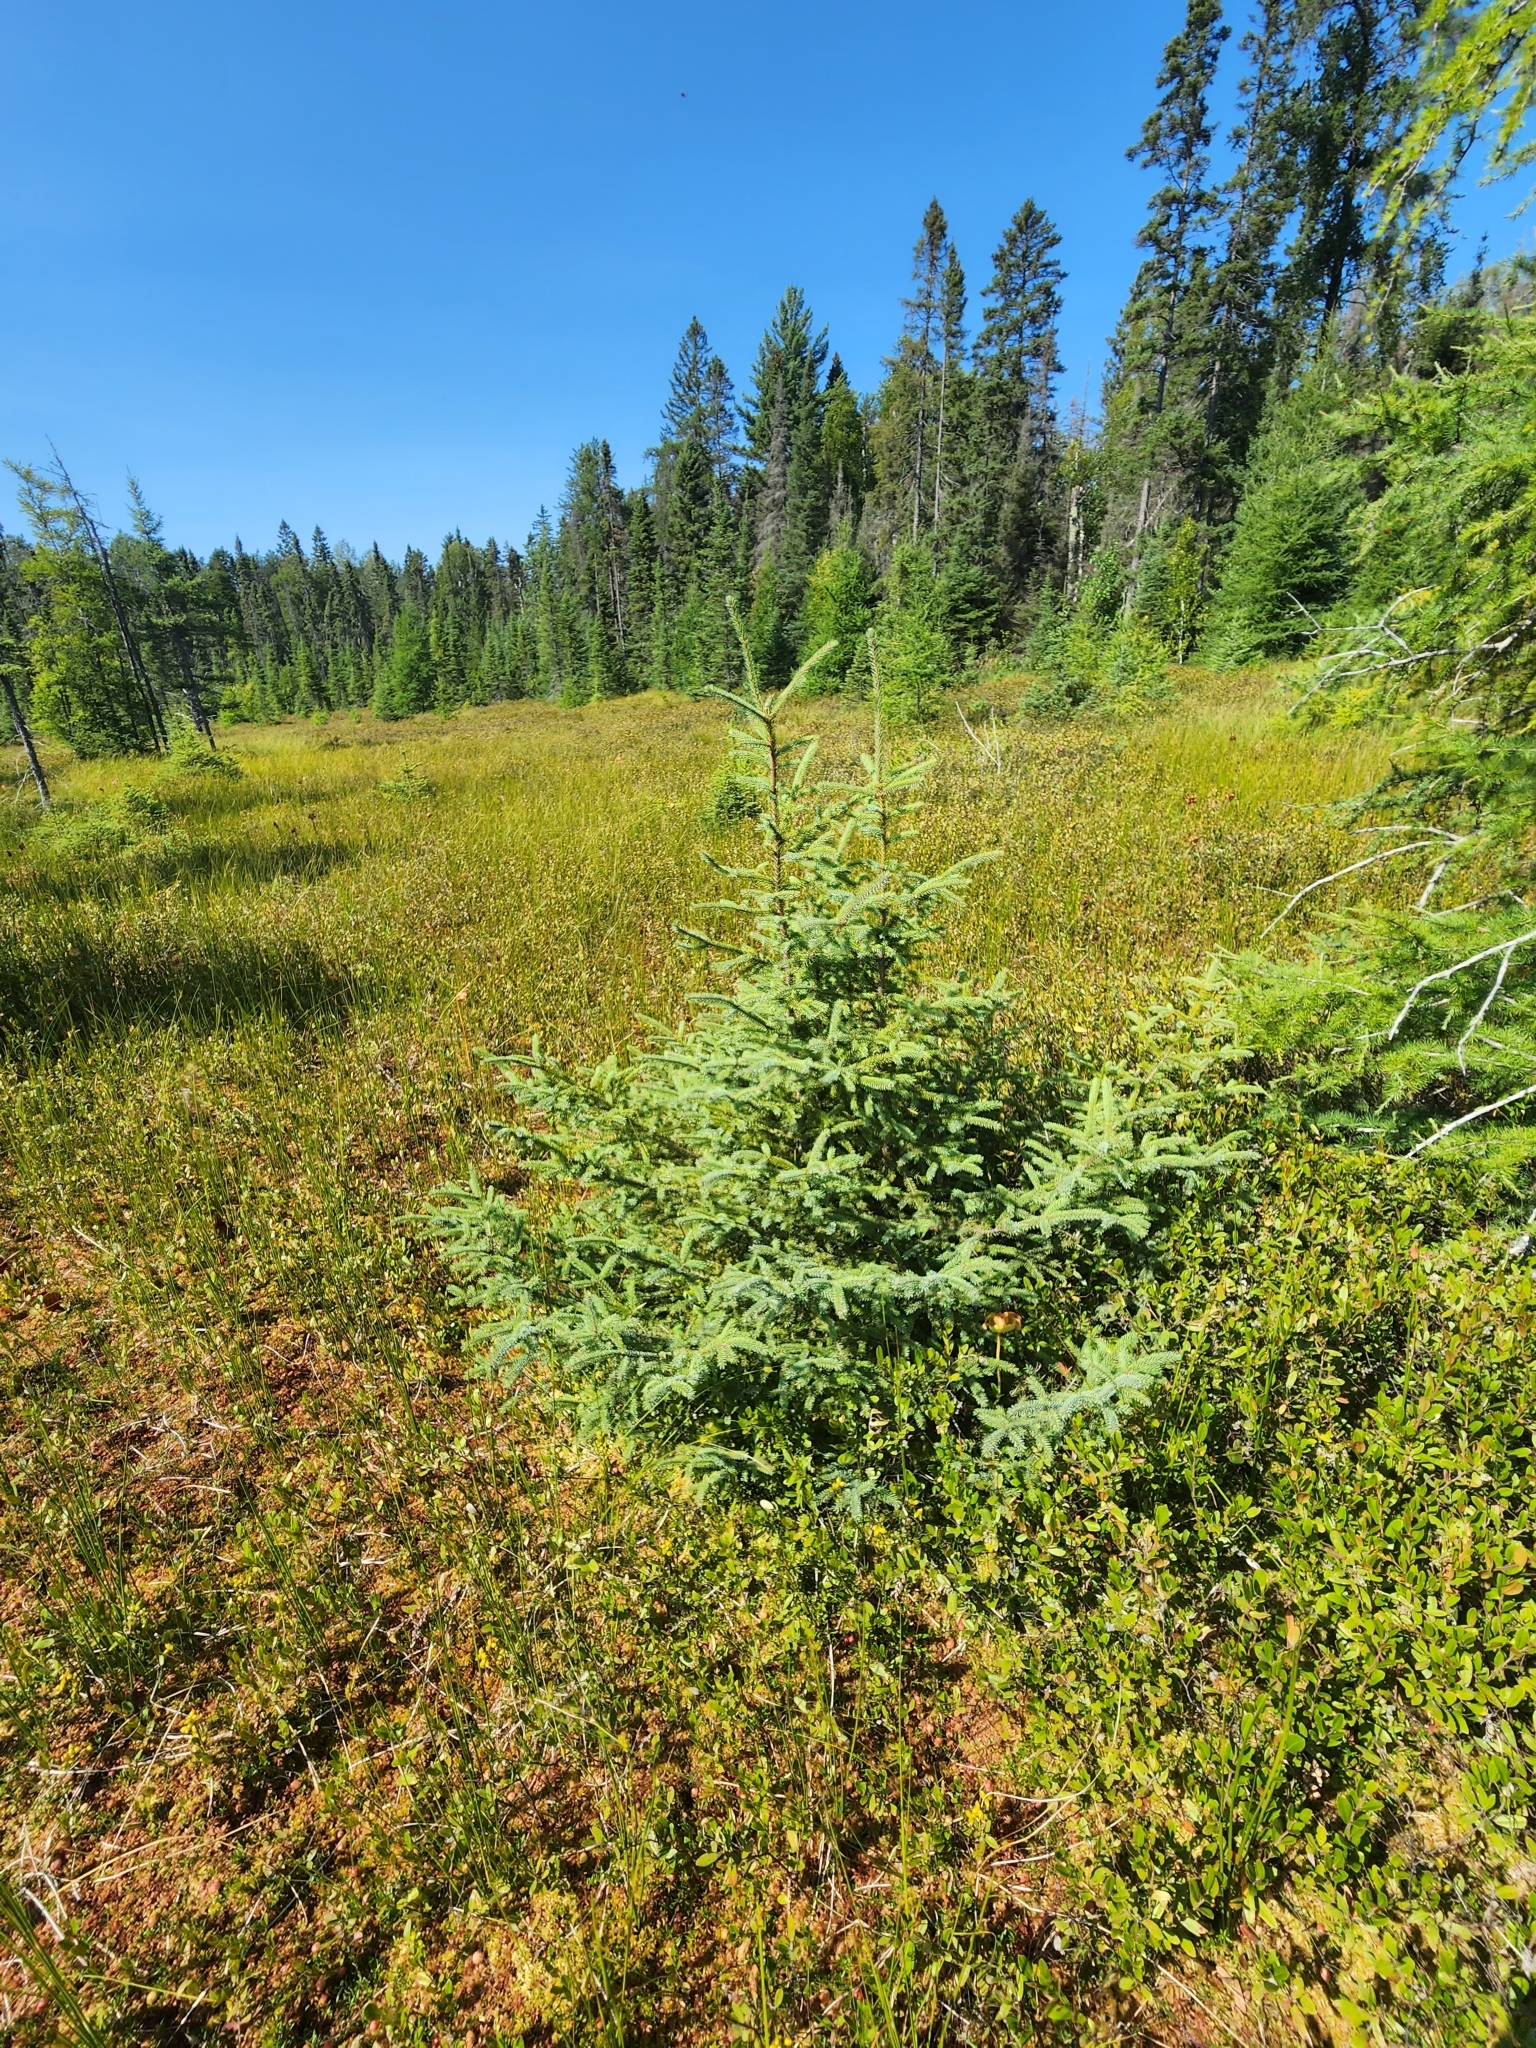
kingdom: Plantae
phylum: Tracheophyta
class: Pinopsida
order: Pinales
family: Pinaceae
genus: Picea
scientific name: Picea mariana
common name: Black spruce
